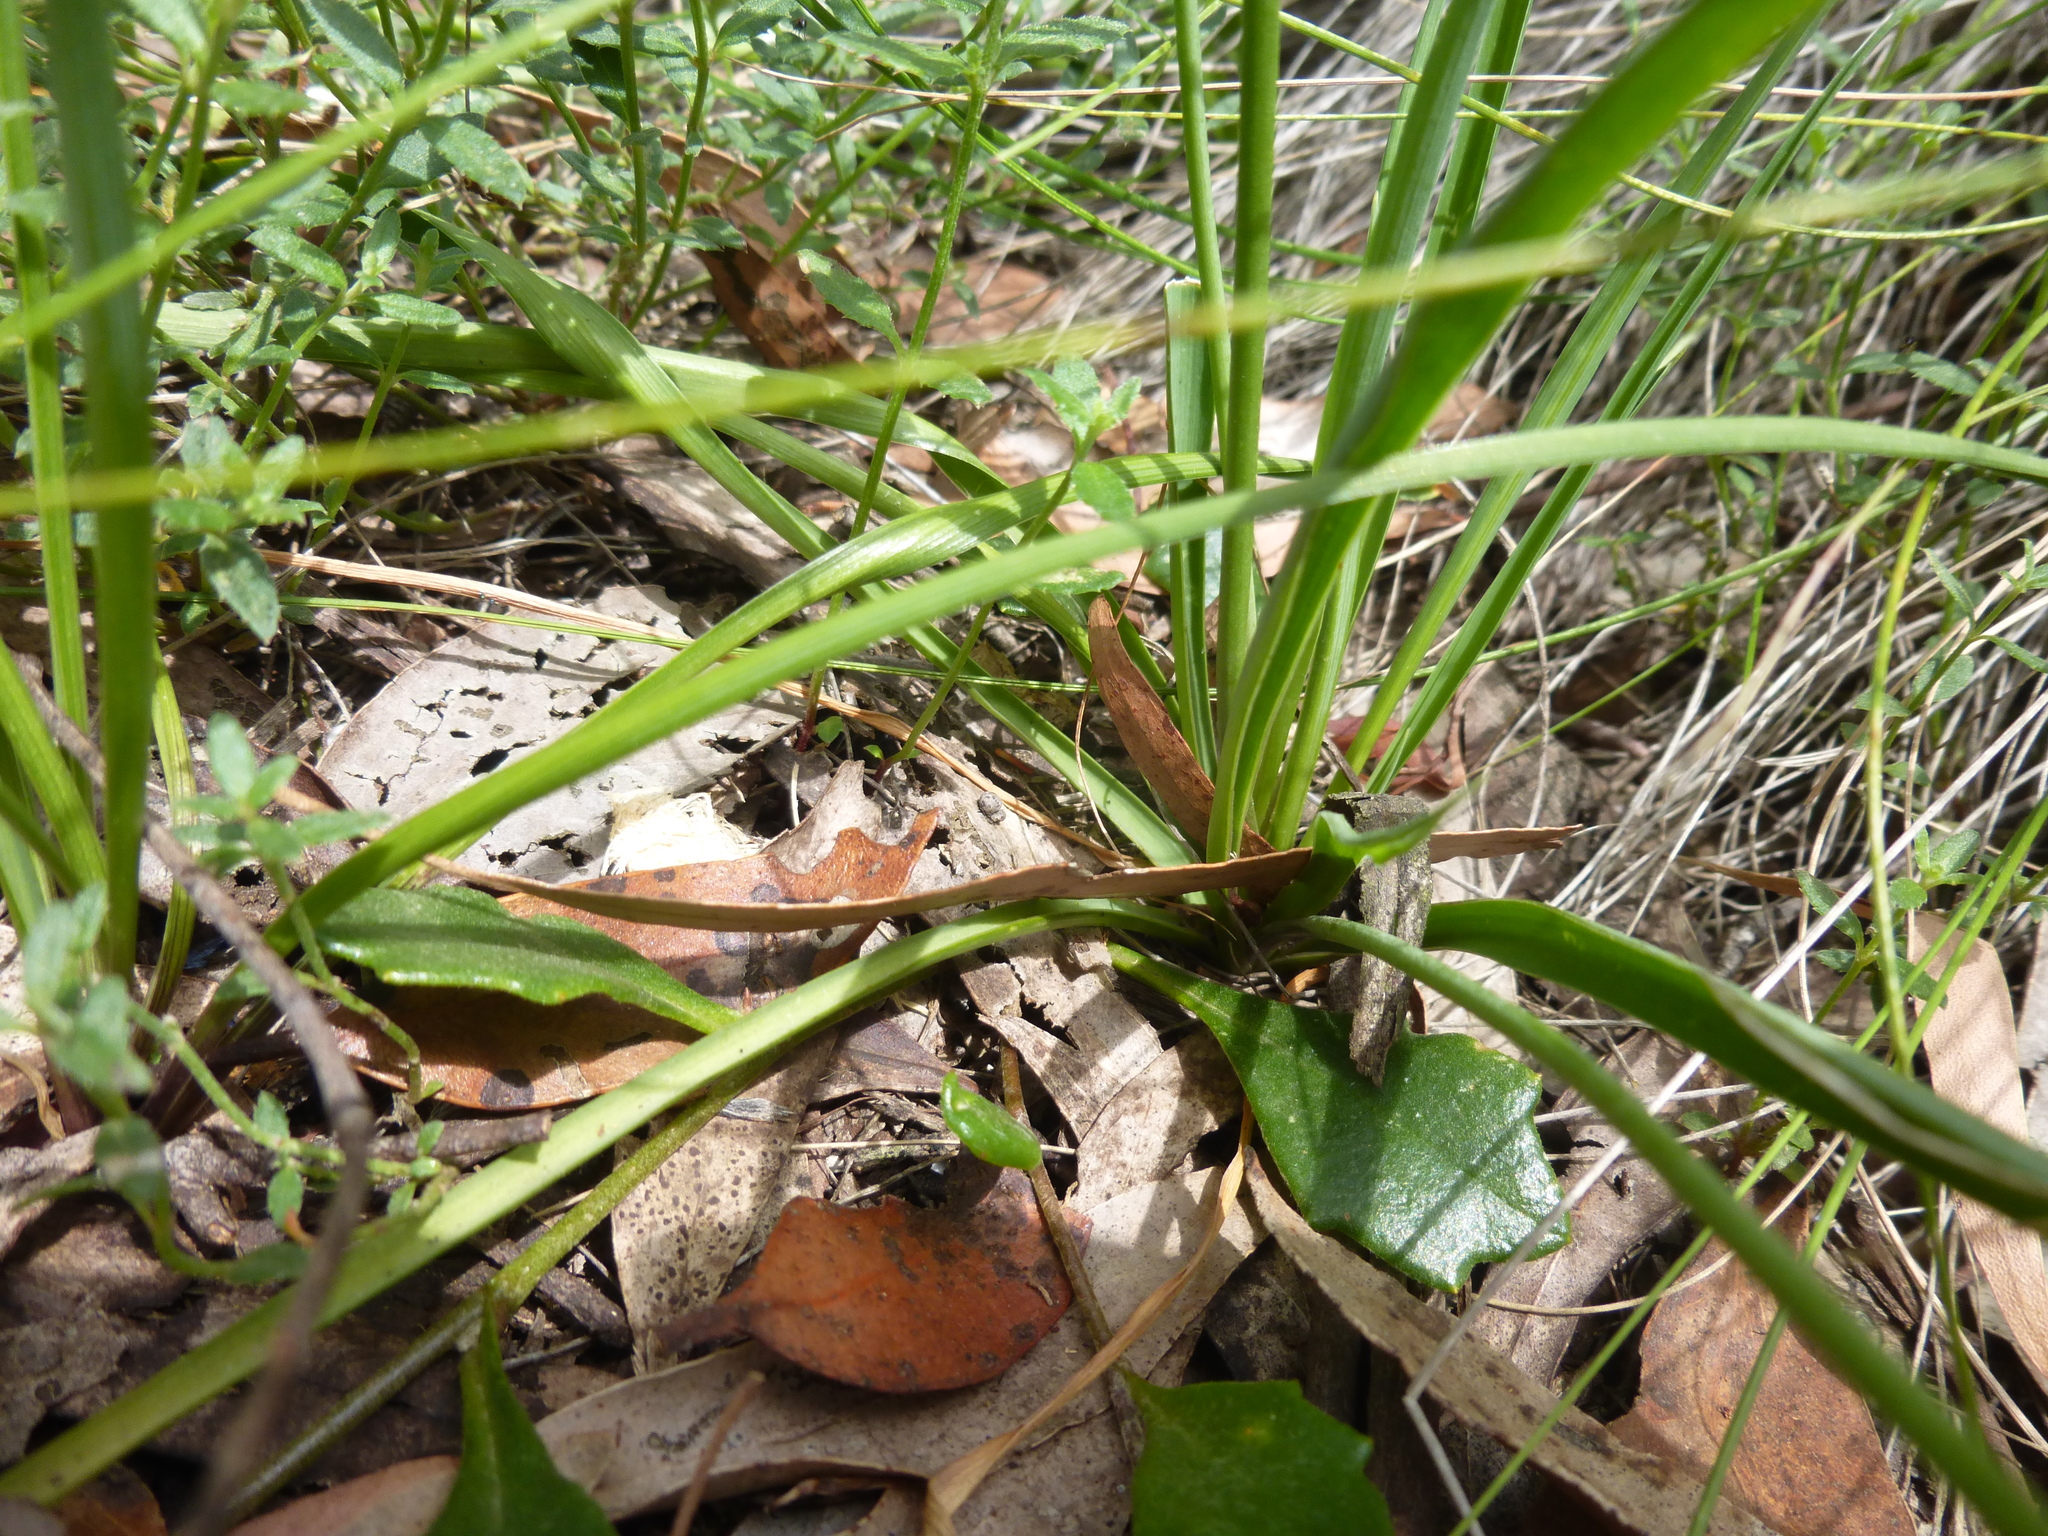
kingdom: Plantae
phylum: Tracheophyta
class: Liliopsida
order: Asparagales
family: Asparagaceae
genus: Arthropodium
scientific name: Arthropodium strictum
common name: Chocolate-lily
